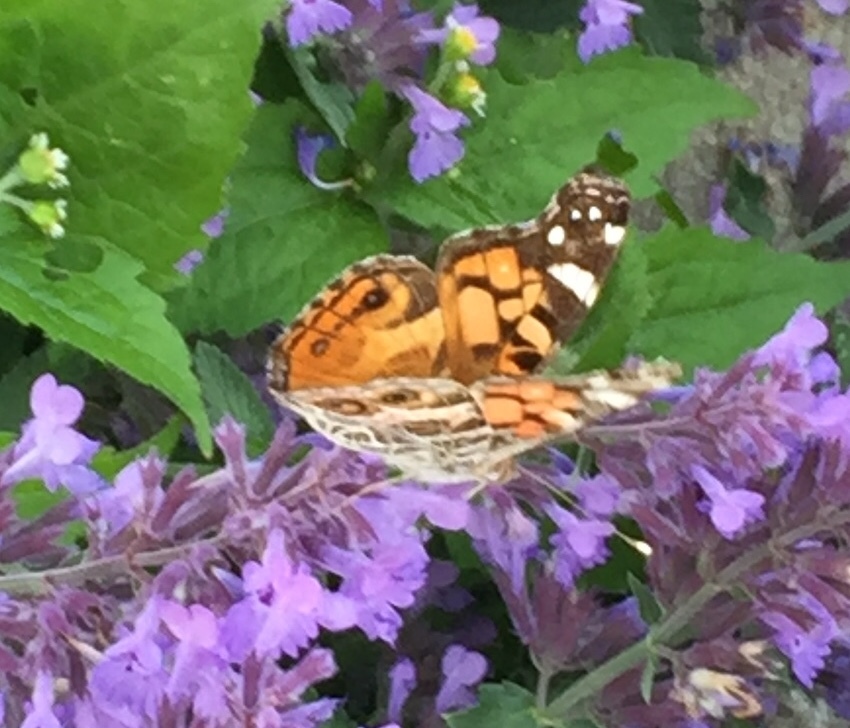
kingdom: Animalia
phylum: Arthropoda
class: Insecta
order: Lepidoptera
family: Nymphalidae
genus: Vanessa
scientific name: Vanessa virginiensis
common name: American lady
